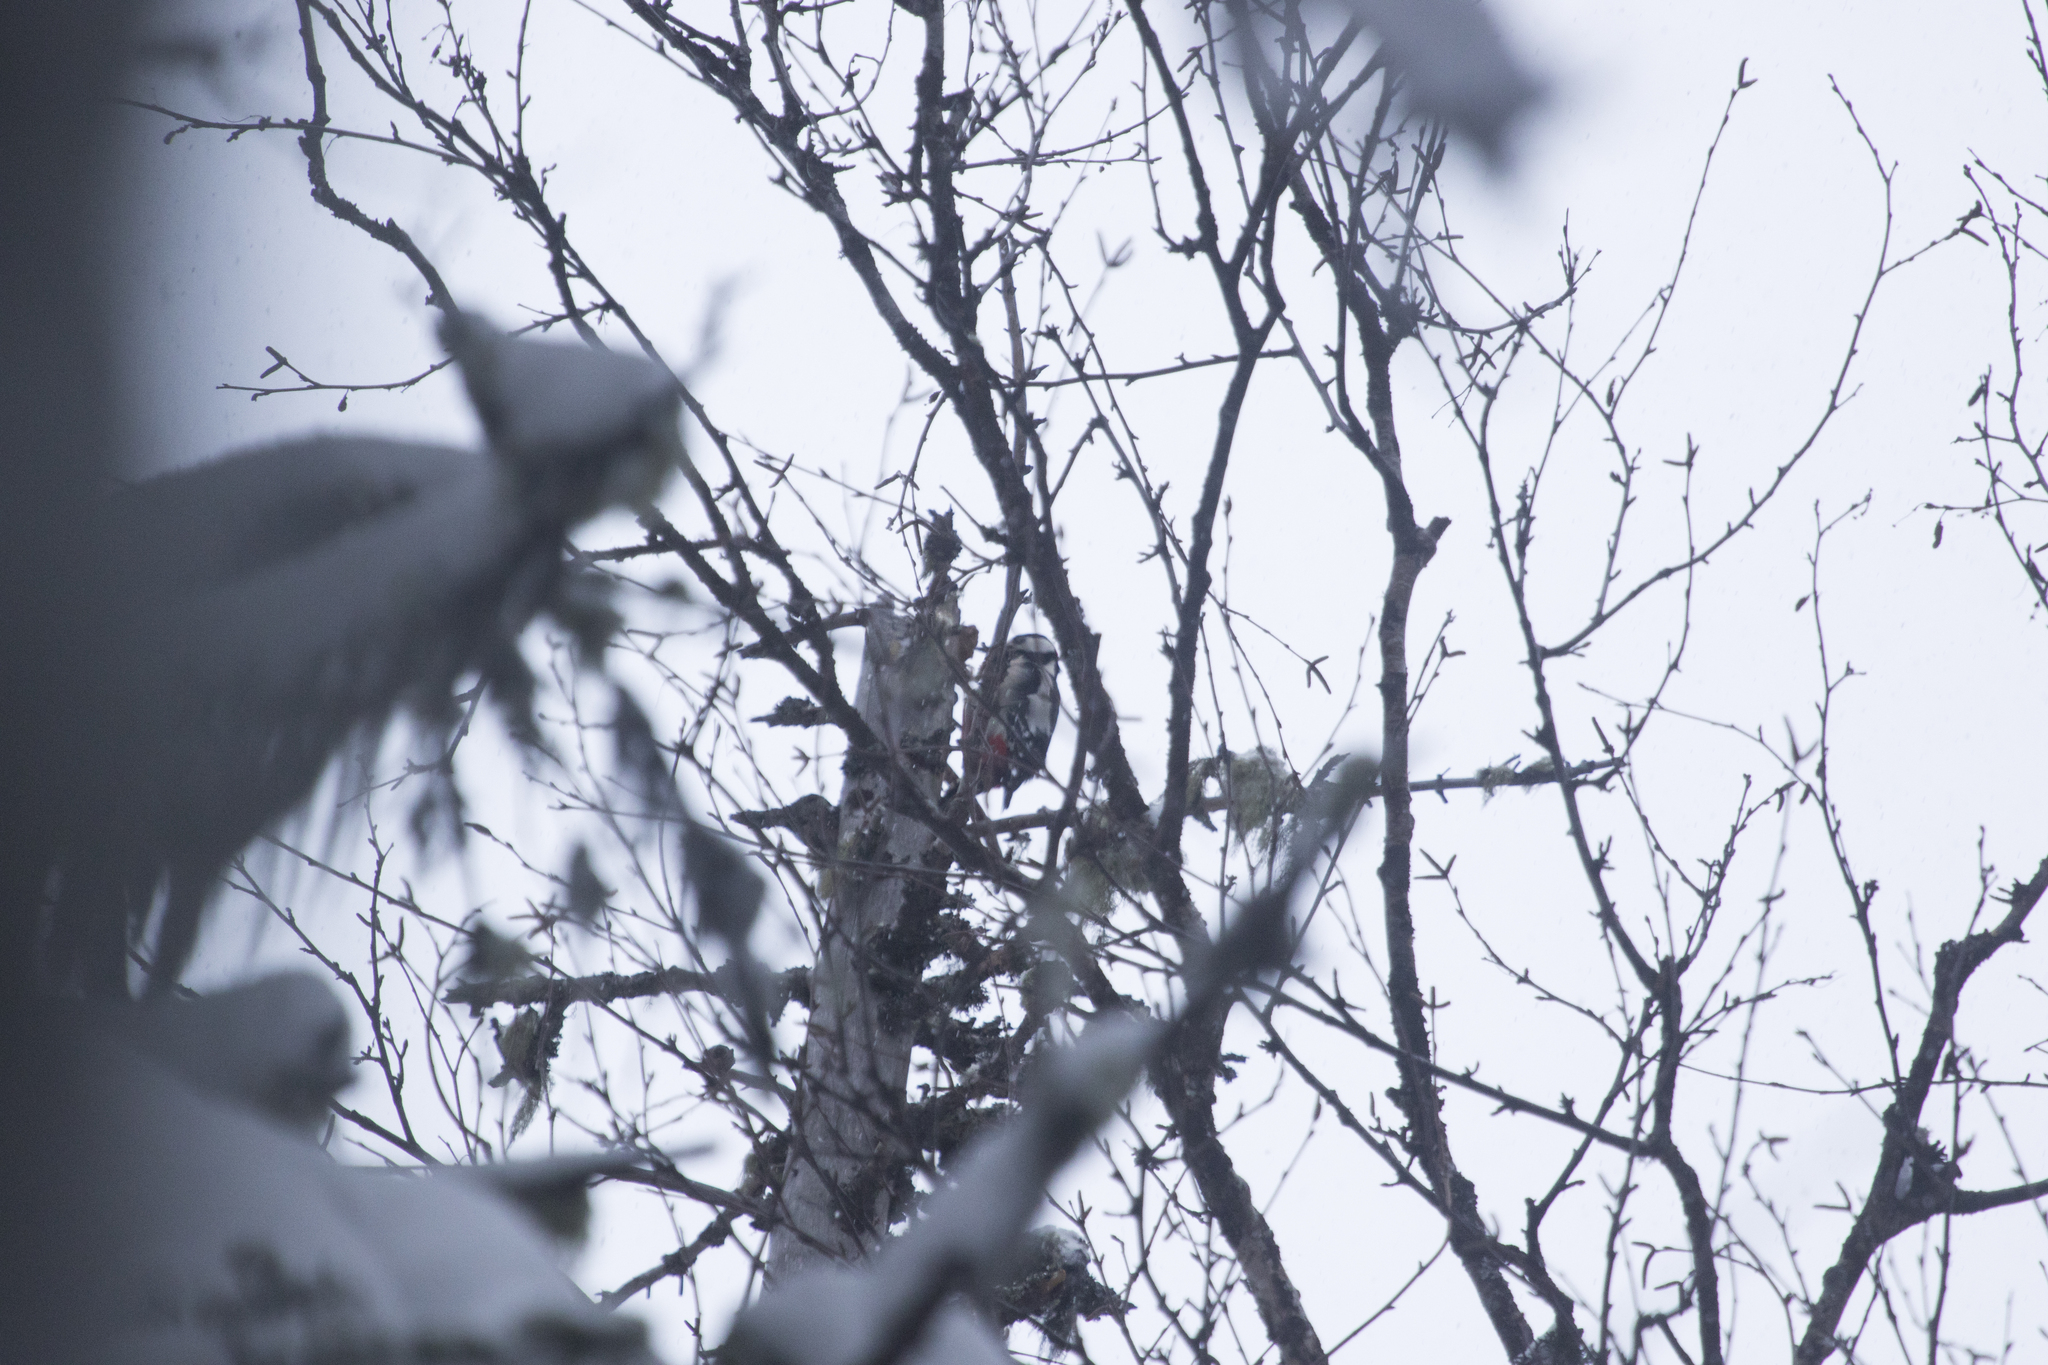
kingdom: Animalia
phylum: Chordata
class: Aves
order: Piciformes
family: Picidae
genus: Dendrocopos
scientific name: Dendrocopos major
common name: Great spotted woodpecker
